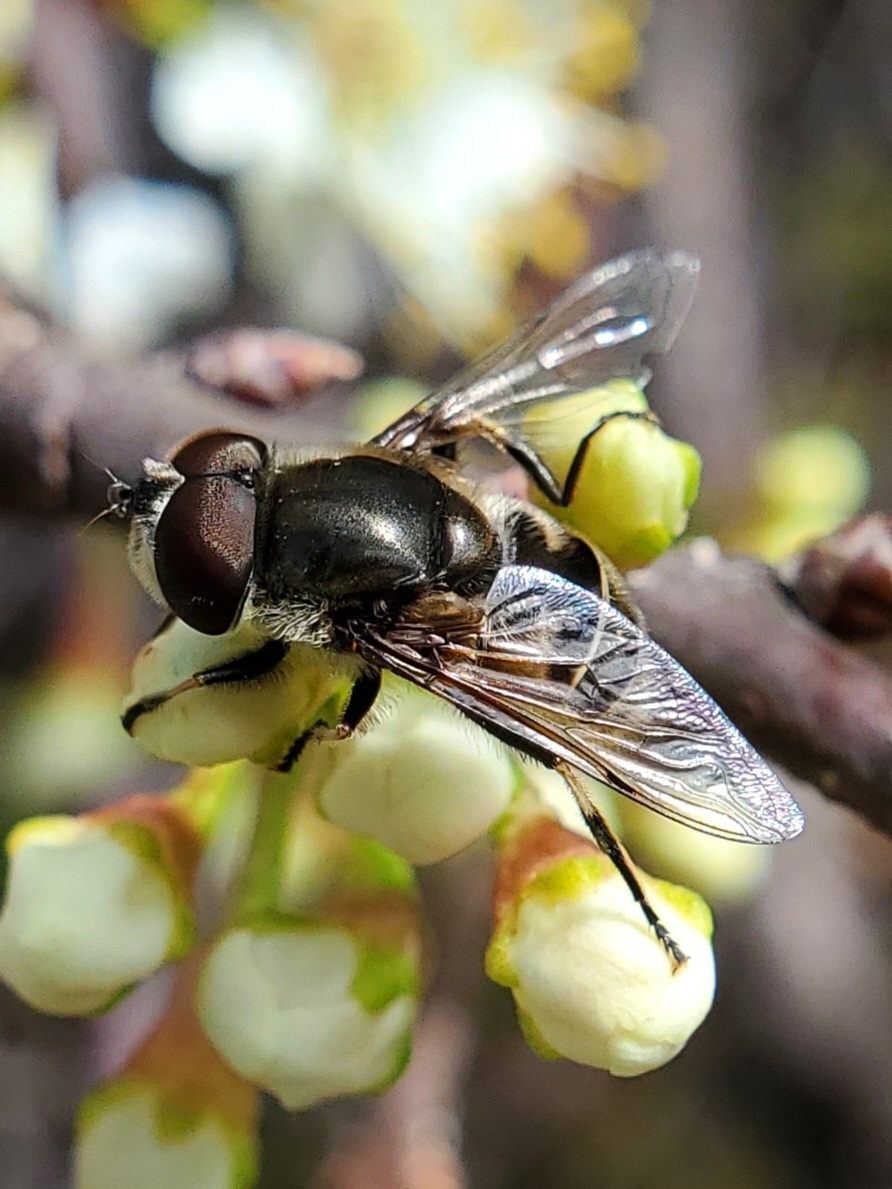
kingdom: Animalia
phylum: Arthropoda
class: Insecta
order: Diptera
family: Syrphidae
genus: Eristalis
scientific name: Eristalis dimidiata
